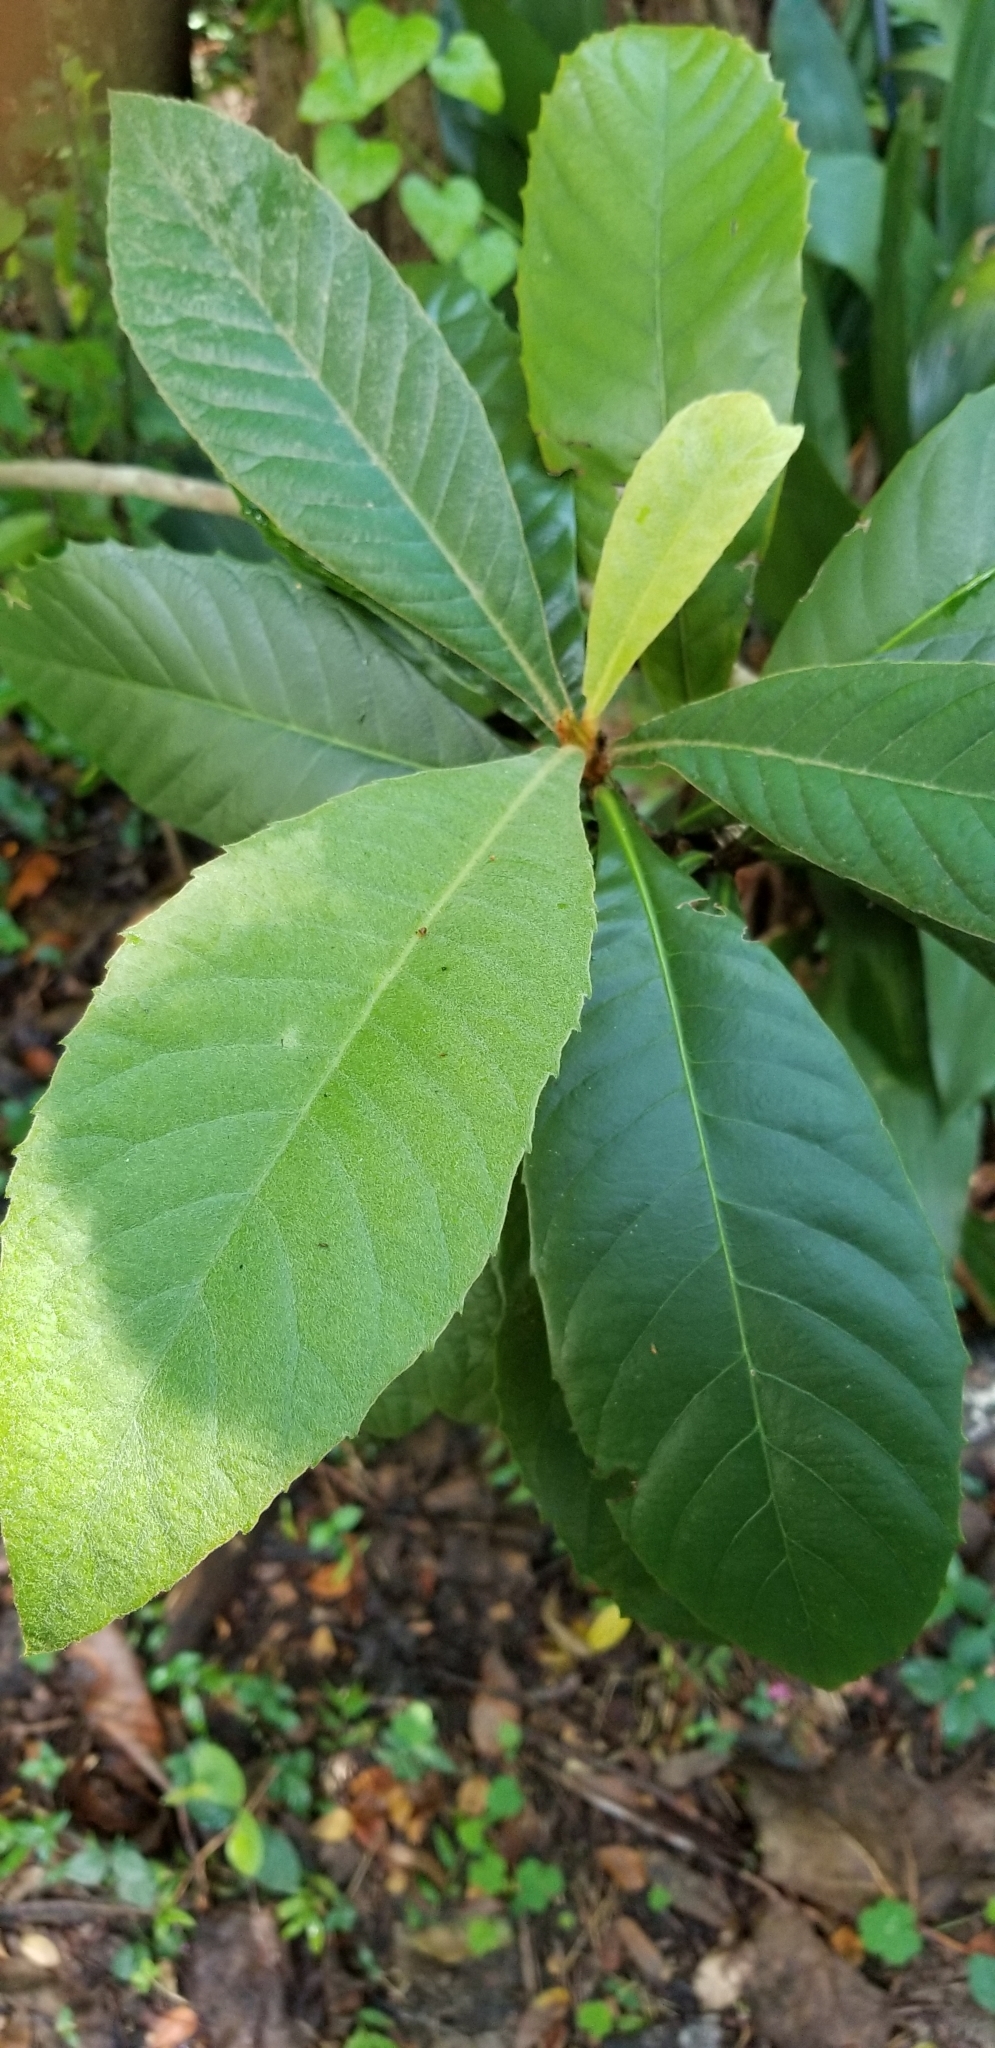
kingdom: Plantae
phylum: Tracheophyta
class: Magnoliopsida
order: Rosales
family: Rosaceae
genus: Rhaphiolepis
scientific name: Rhaphiolepis bibas
